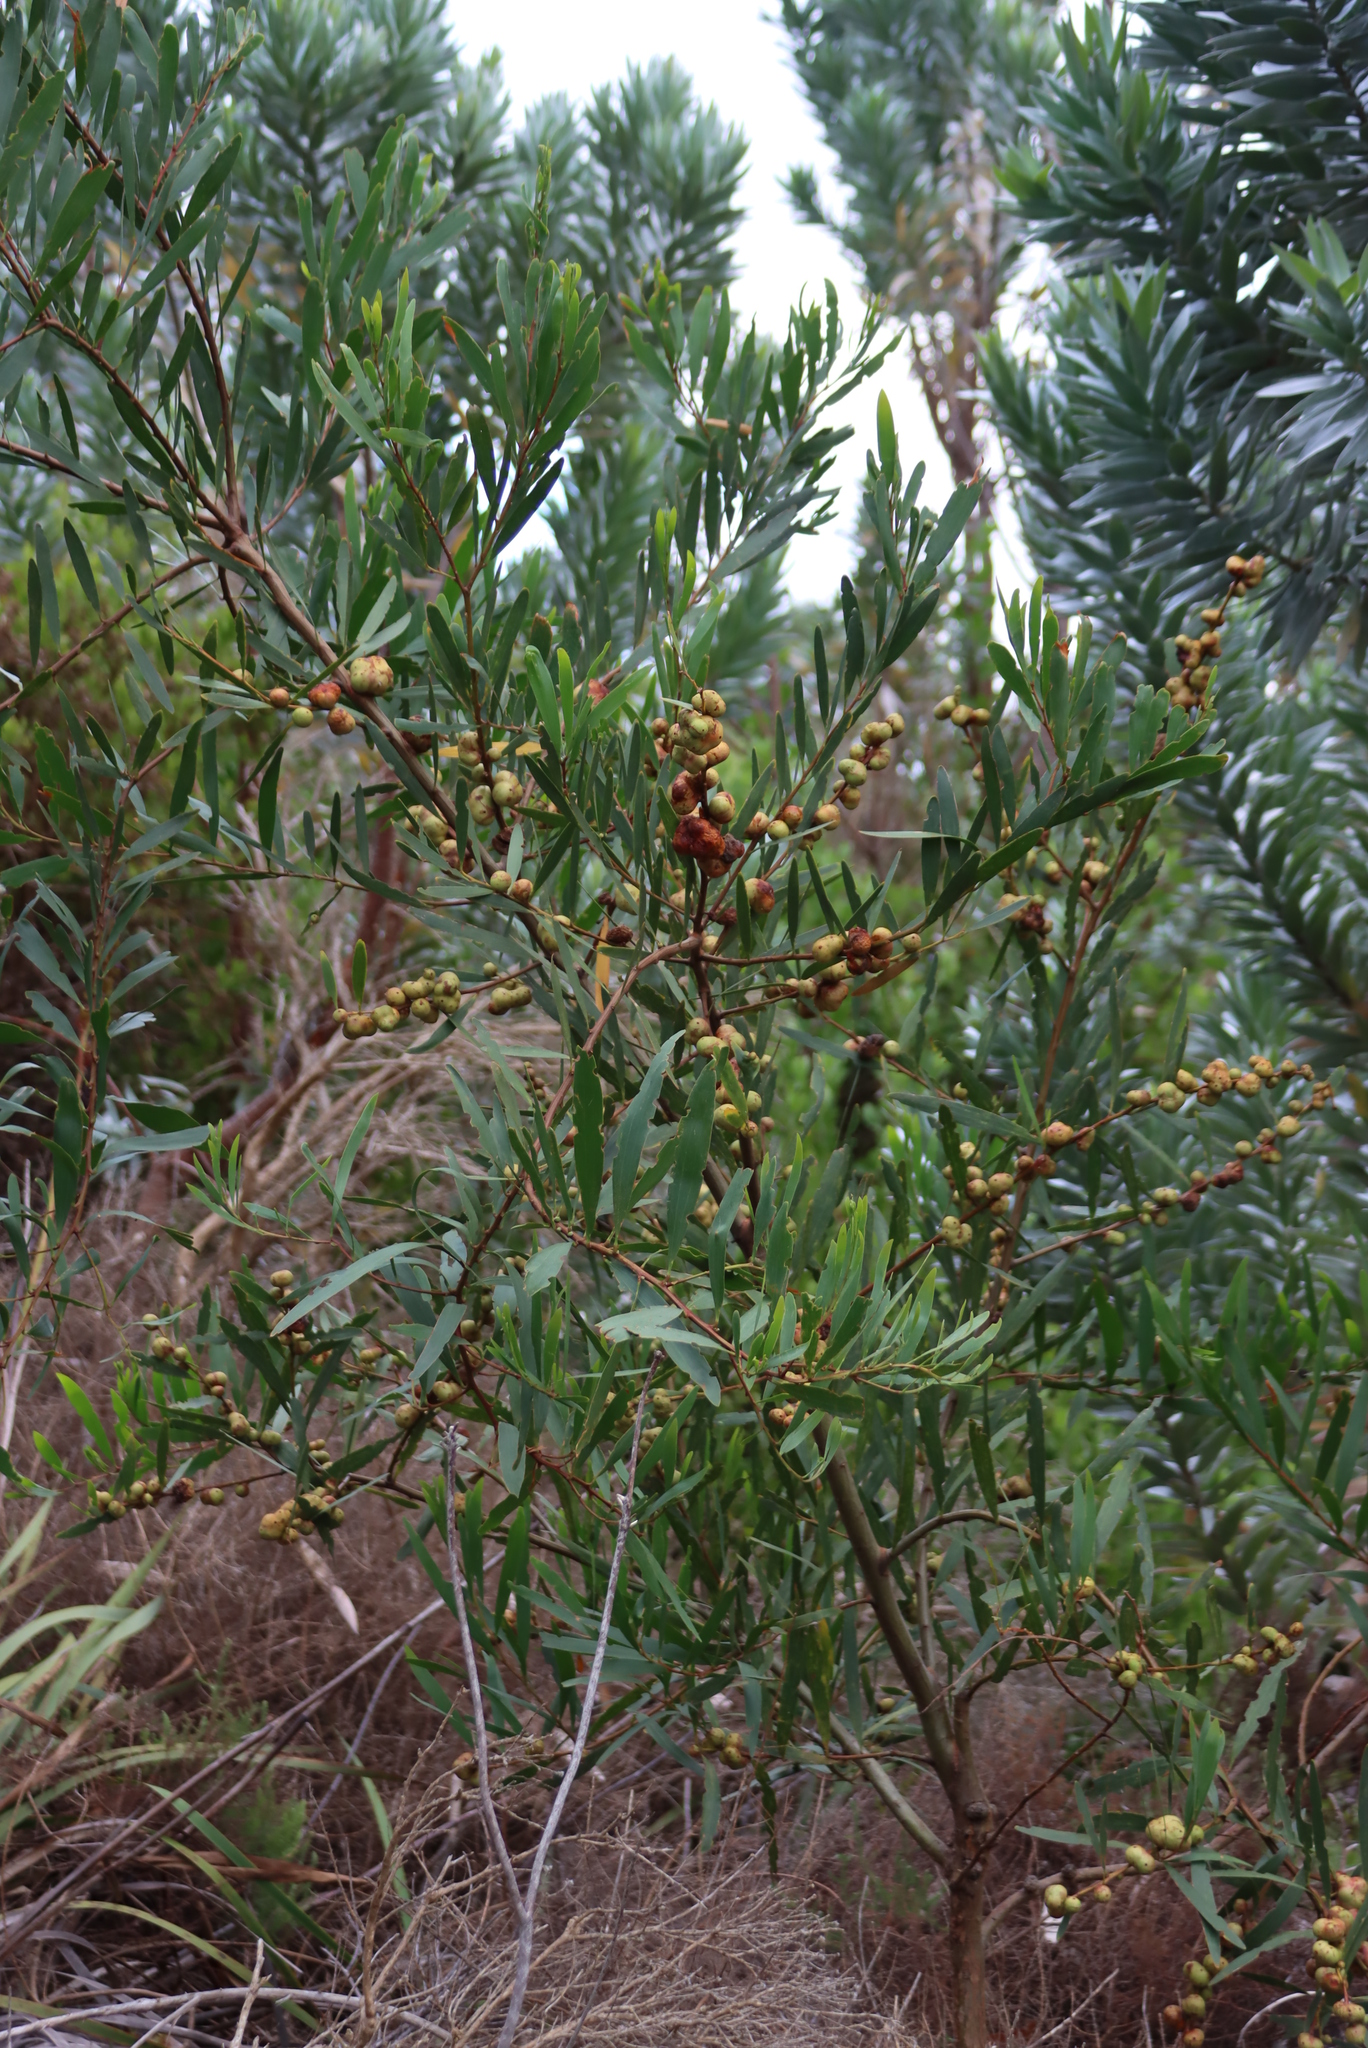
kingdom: Plantae
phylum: Tracheophyta
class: Magnoliopsida
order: Fabales
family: Fabaceae
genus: Acacia
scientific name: Acacia longifolia
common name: Sydney golden wattle
